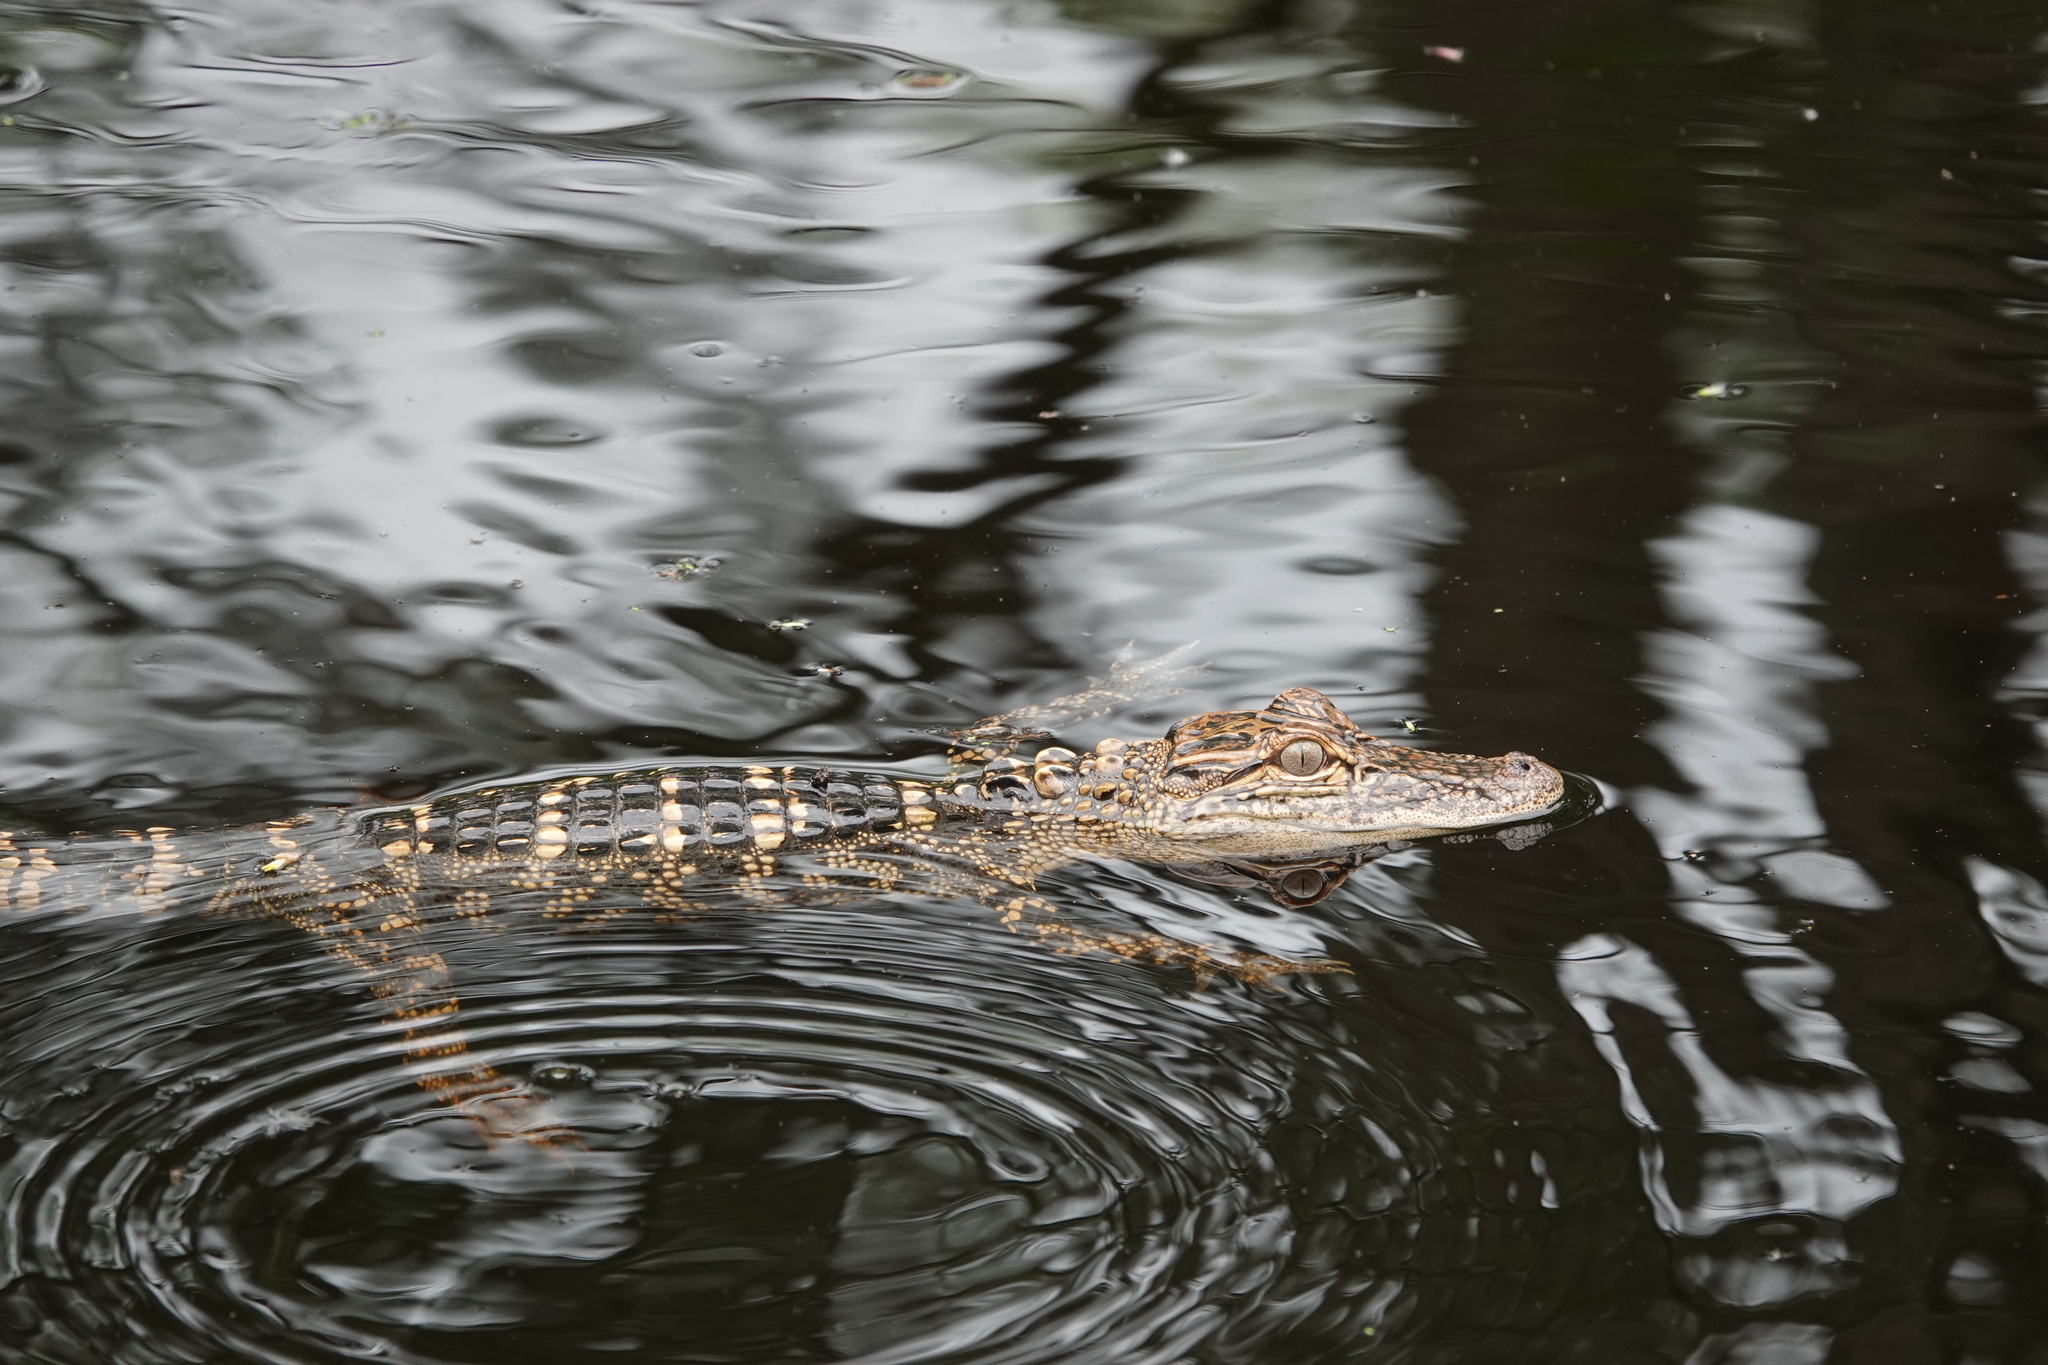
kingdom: Animalia
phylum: Chordata
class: Crocodylia
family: Alligatoridae
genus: Alligator
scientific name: Alligator mississippiensis
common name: American alligator
